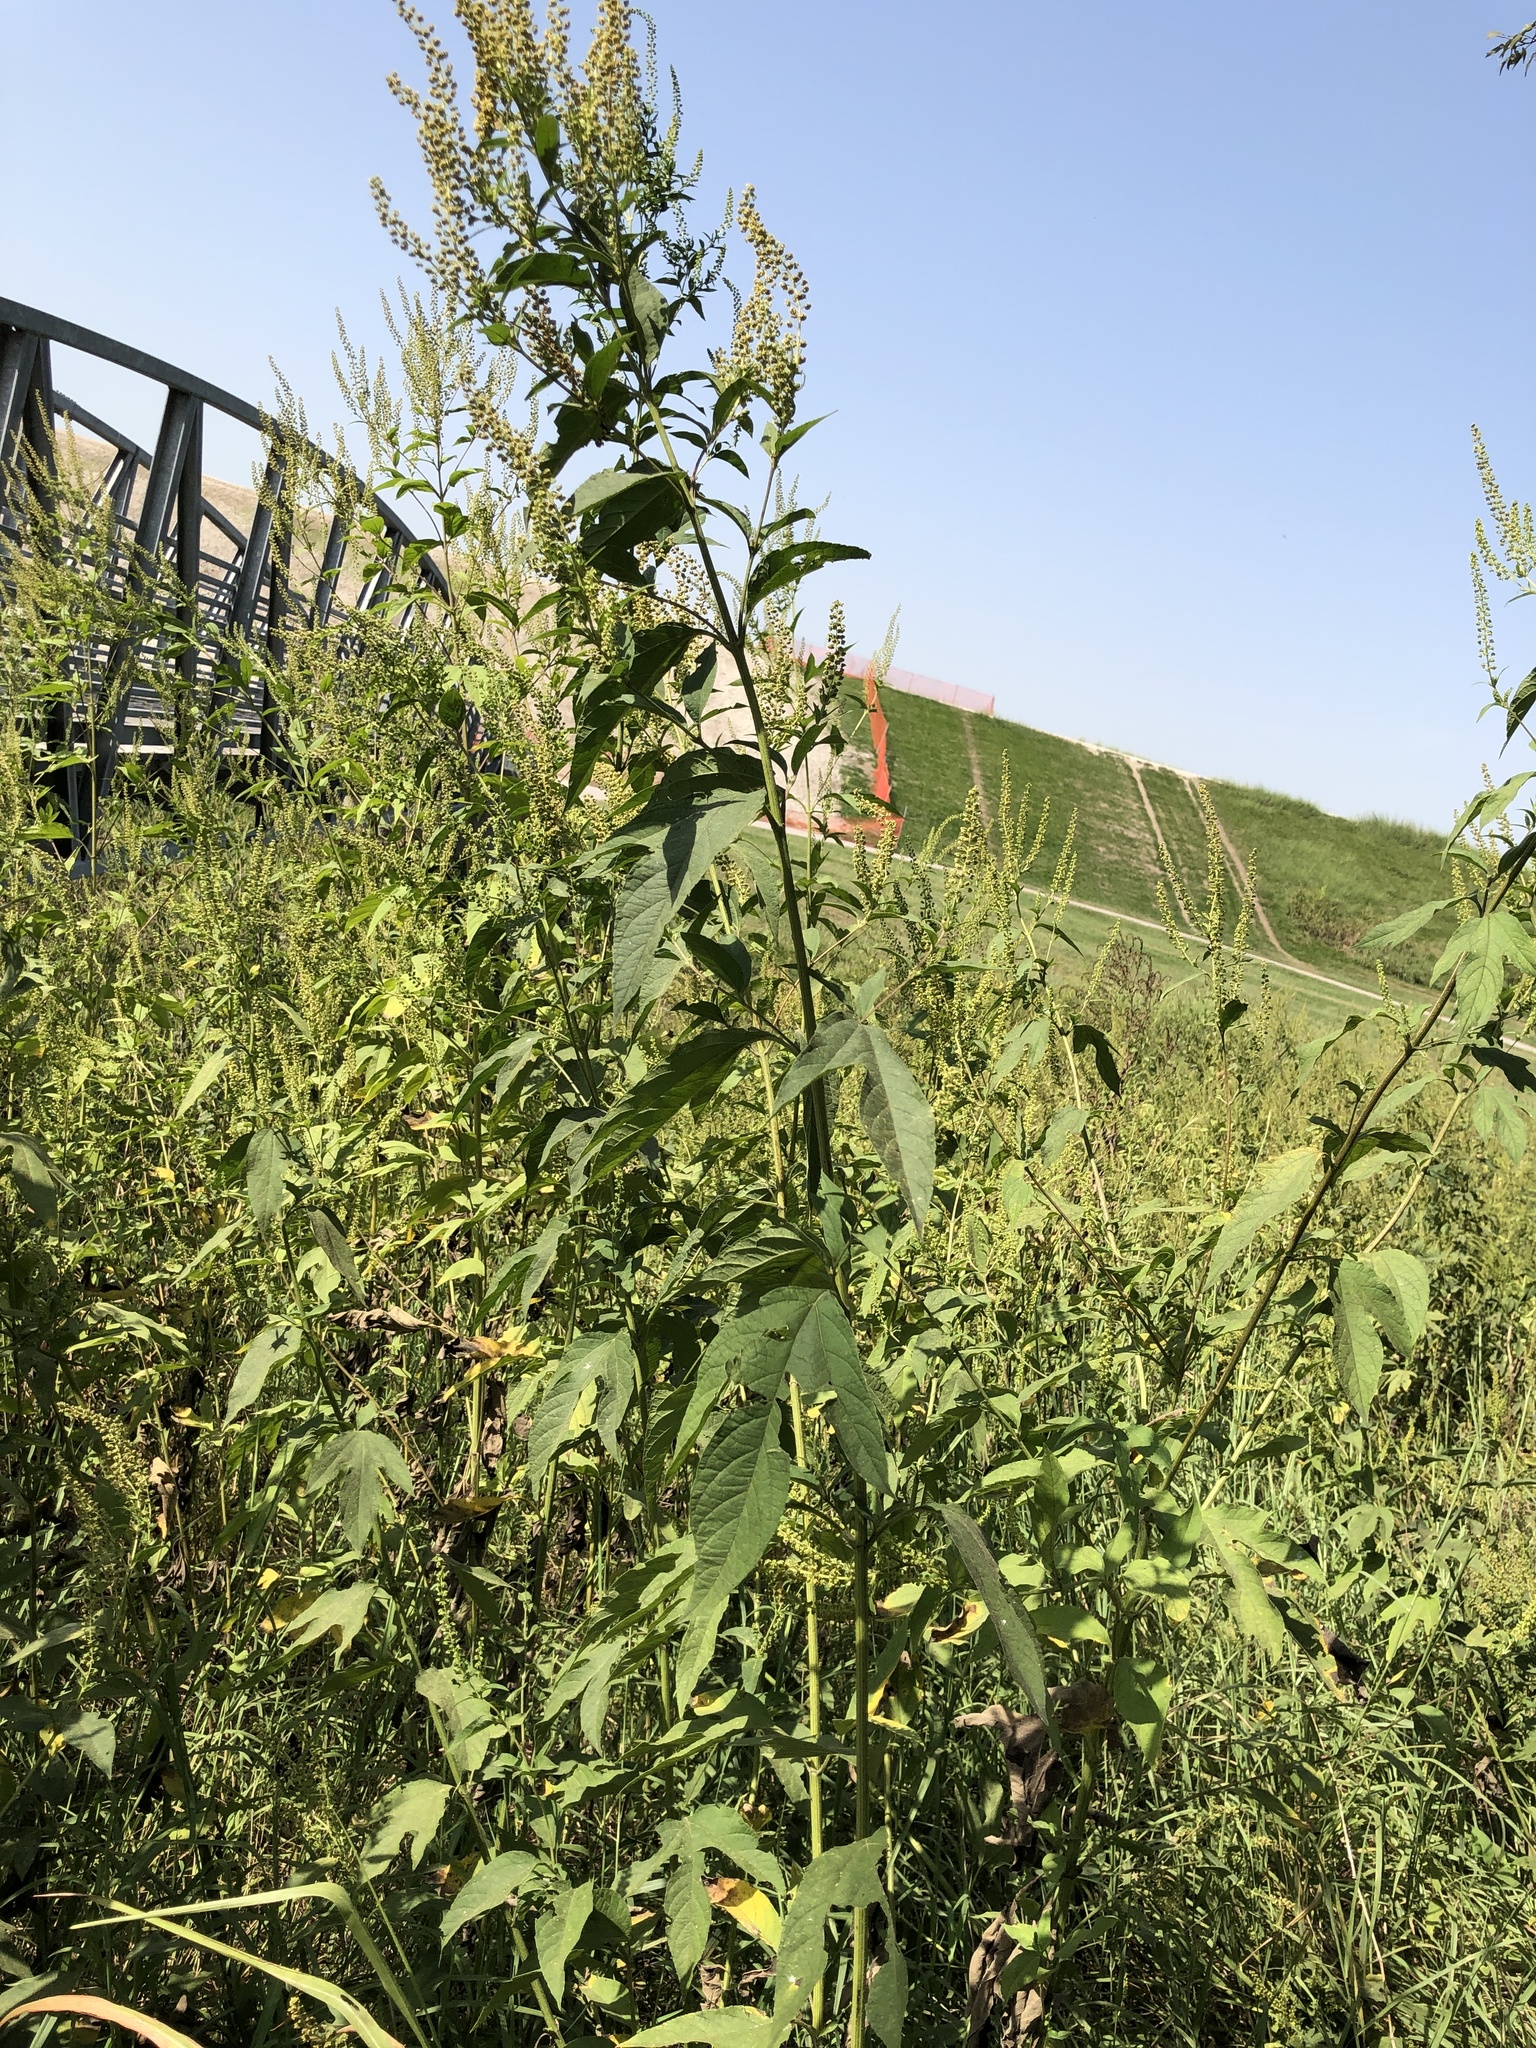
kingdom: Plantae
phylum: Tracheophyta
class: Magnoliopsida
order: Asterales
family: Asteraceae
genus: Ambrosia
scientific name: Ambrosia trifida
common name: Giant ragweed
